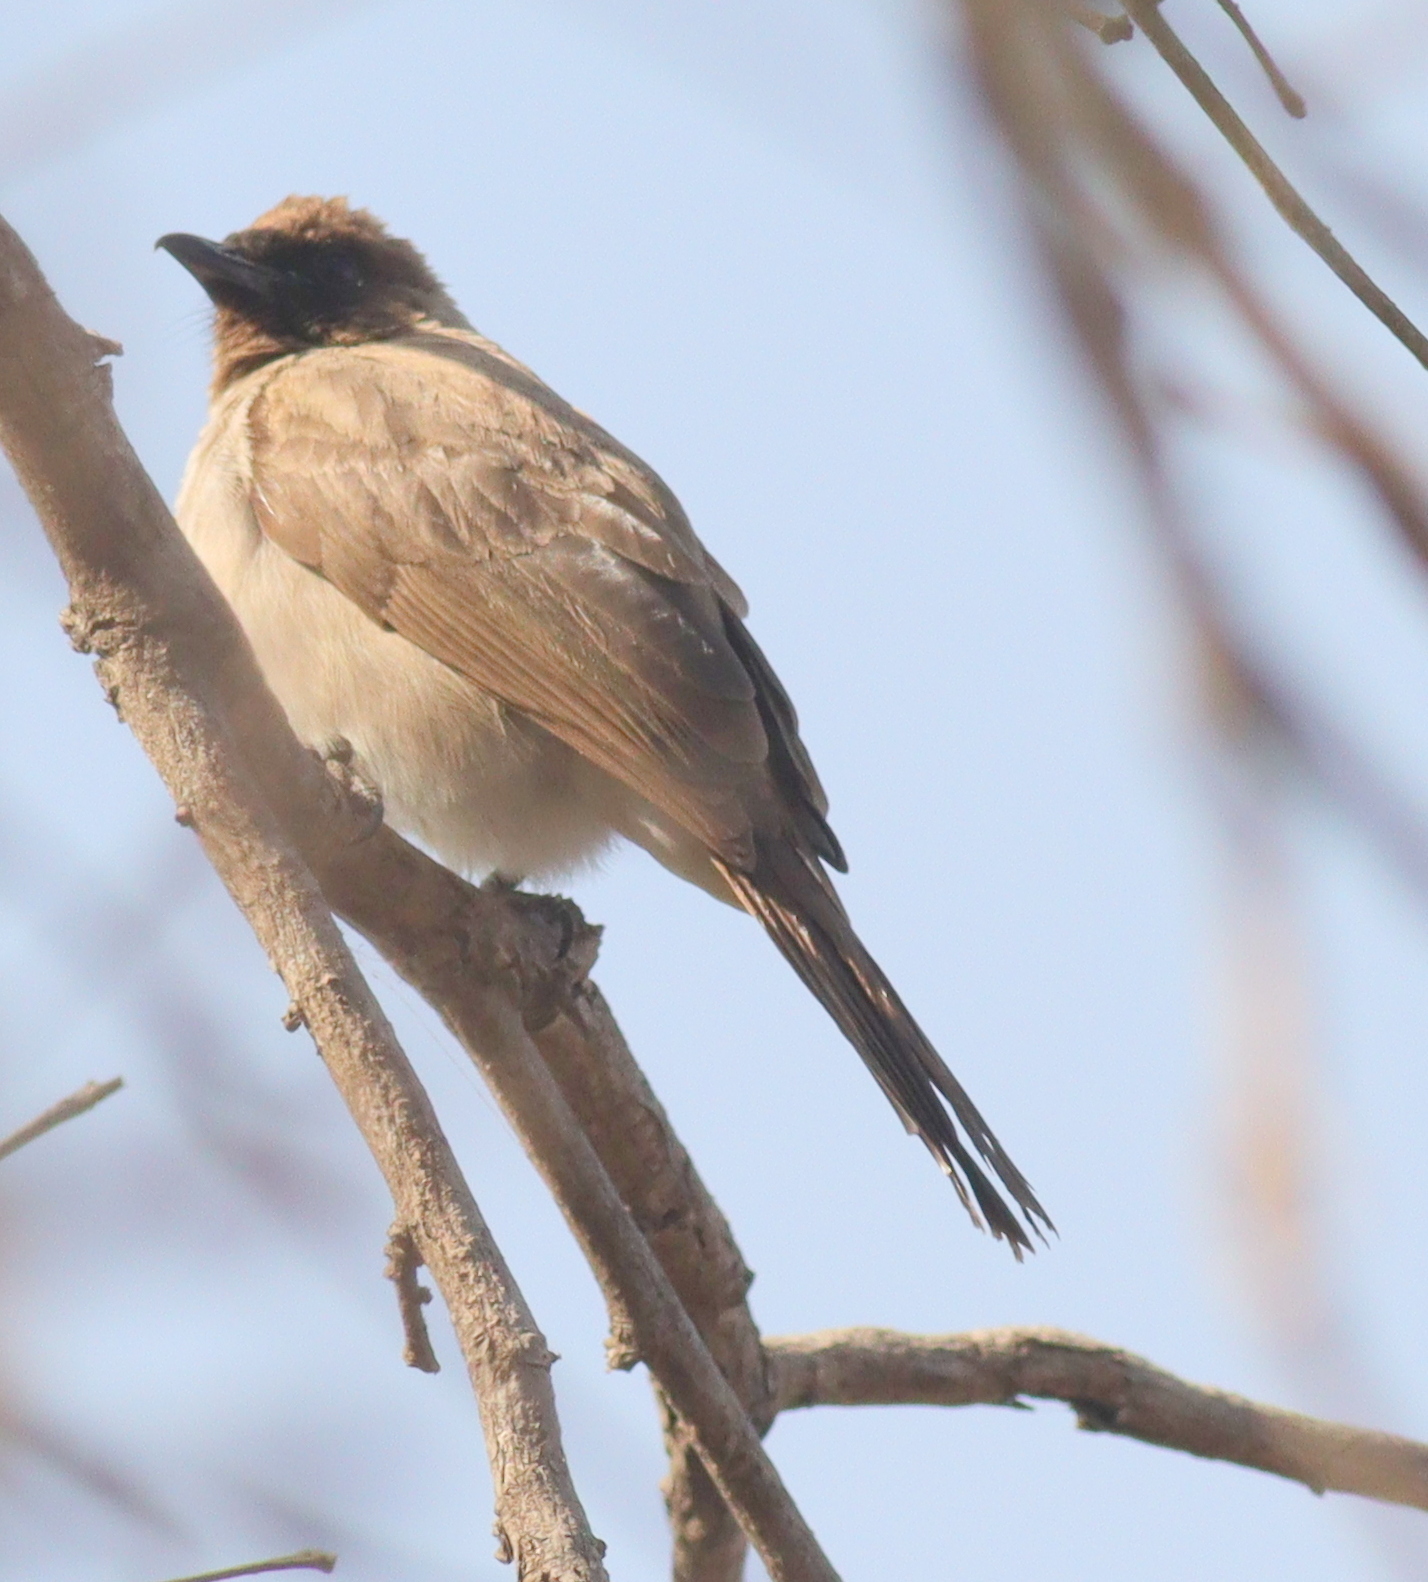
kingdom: Animalia
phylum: Chordata
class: Aves
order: Passeriformes
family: Pycnonotidae
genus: Pycnonotus
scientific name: Pycnonotus barbatus
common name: Common bulbul
